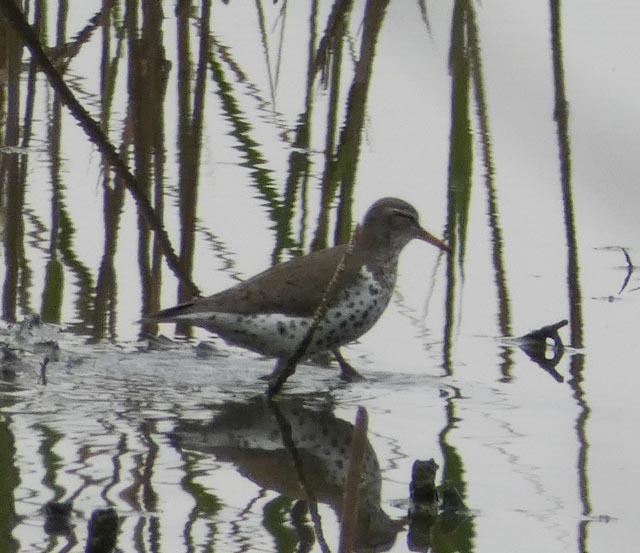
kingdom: Animalia
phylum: Chordata
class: Aves
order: Charadriiformes
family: Scolopacidae
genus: Actitis
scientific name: Actitis macularius
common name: Spotted sandpiper
